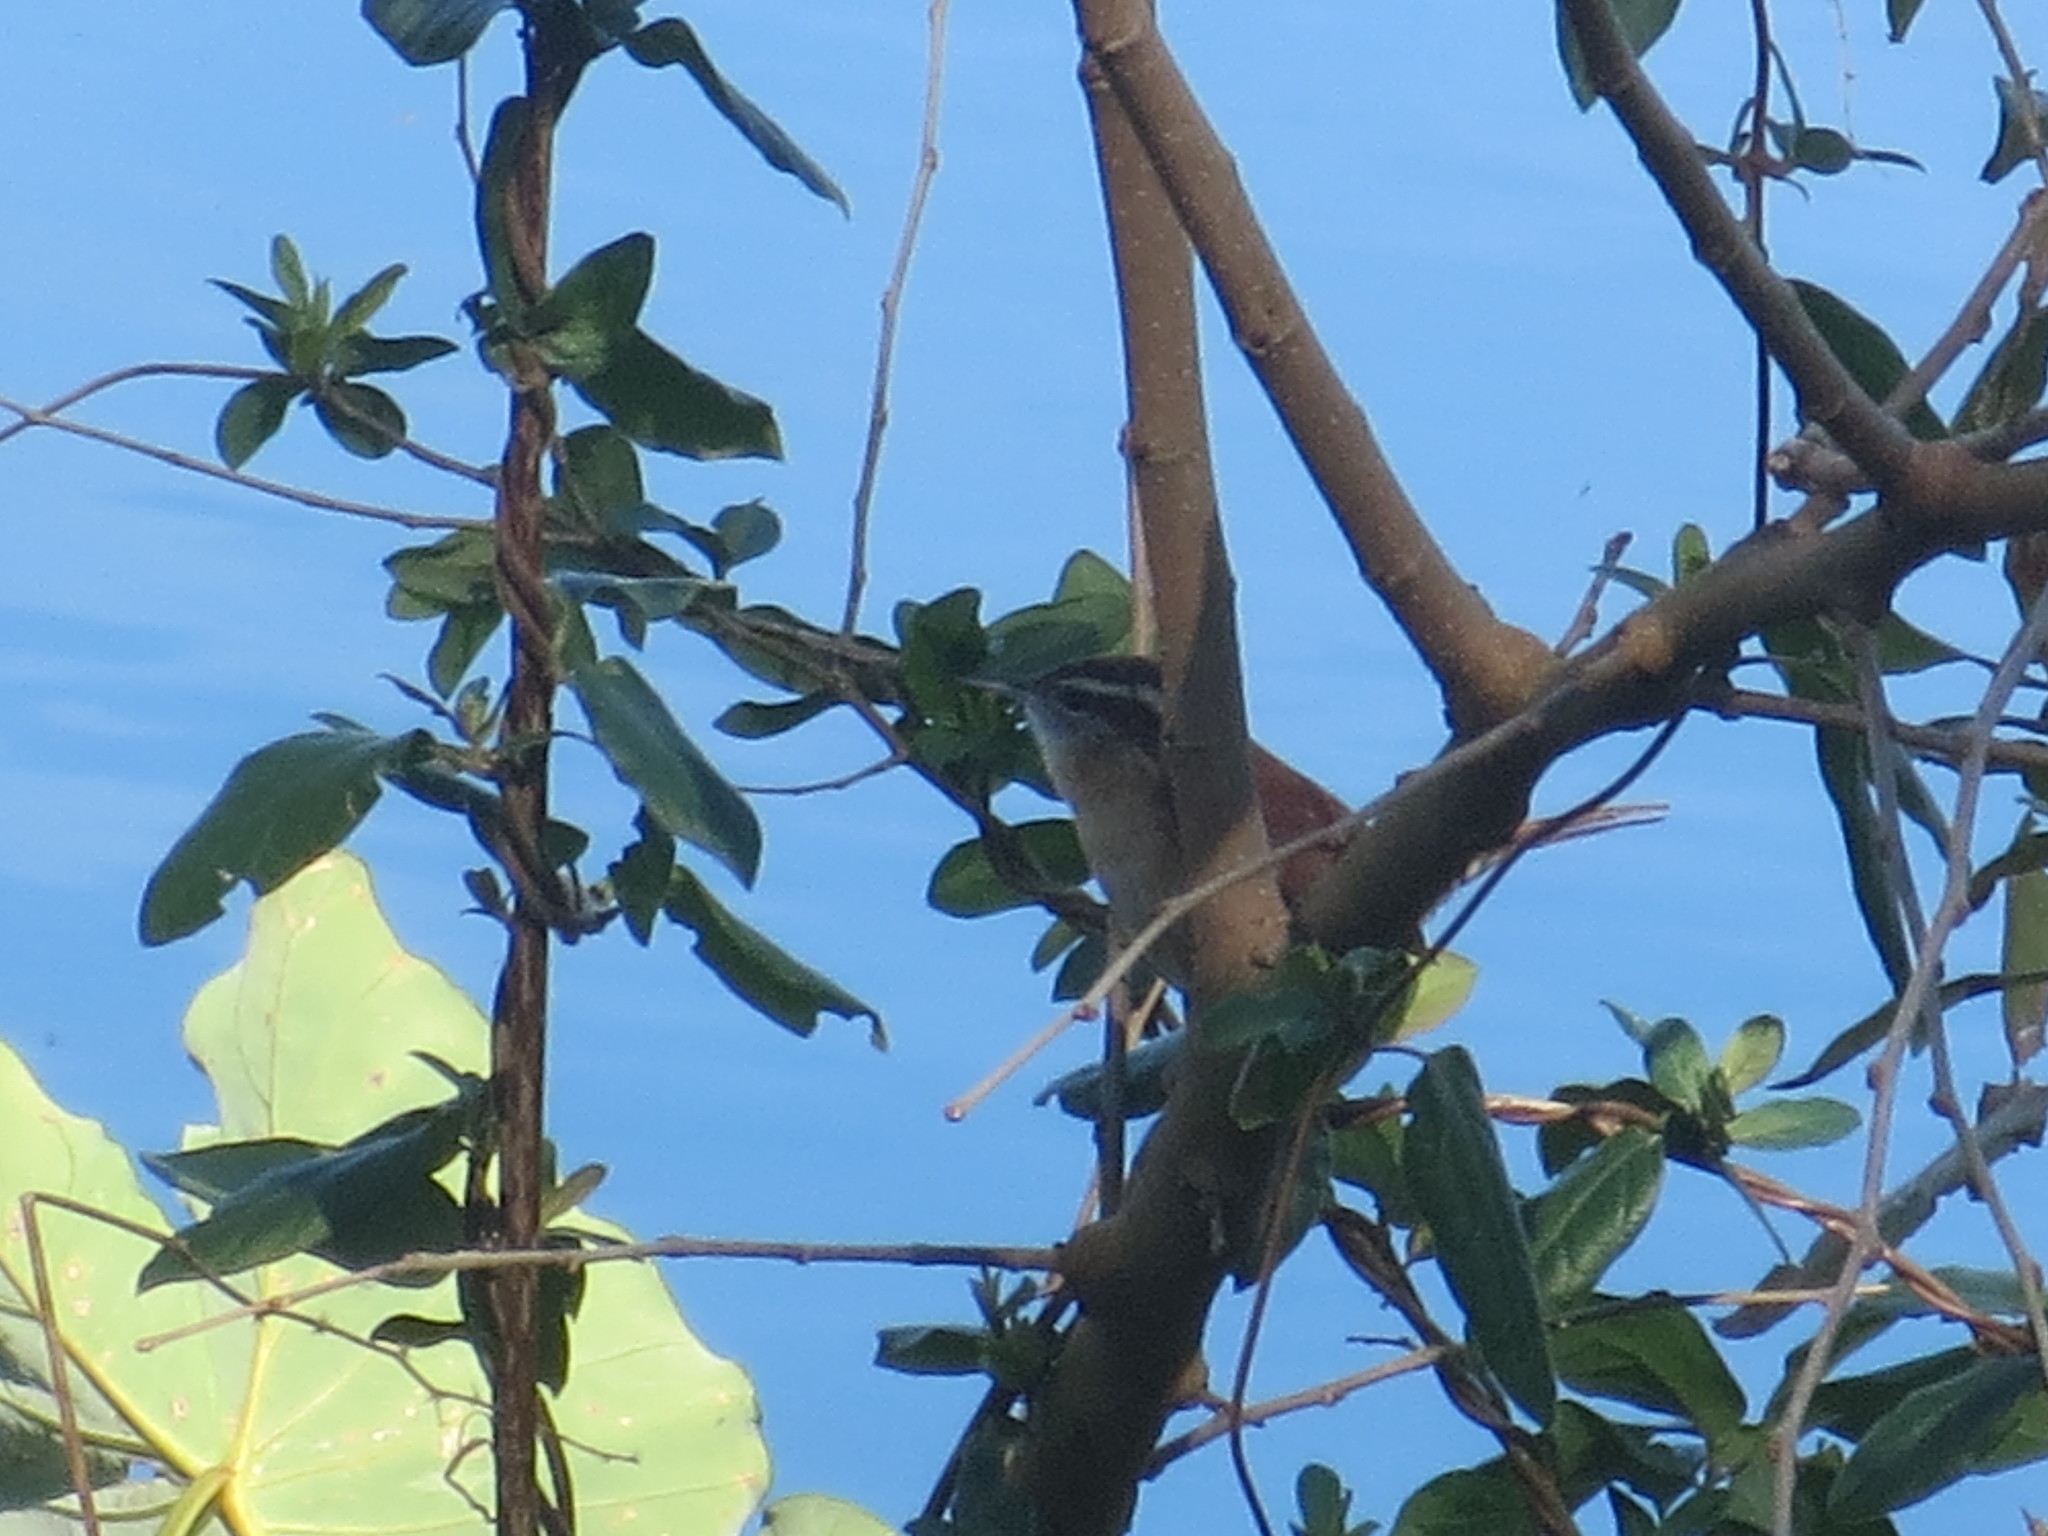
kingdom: Animalia
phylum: Chordata
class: Aves
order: Passeriformes
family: Troglodytidae
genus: Thryothorus
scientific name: Thryothorus ludovicianus
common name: Carolina wren
